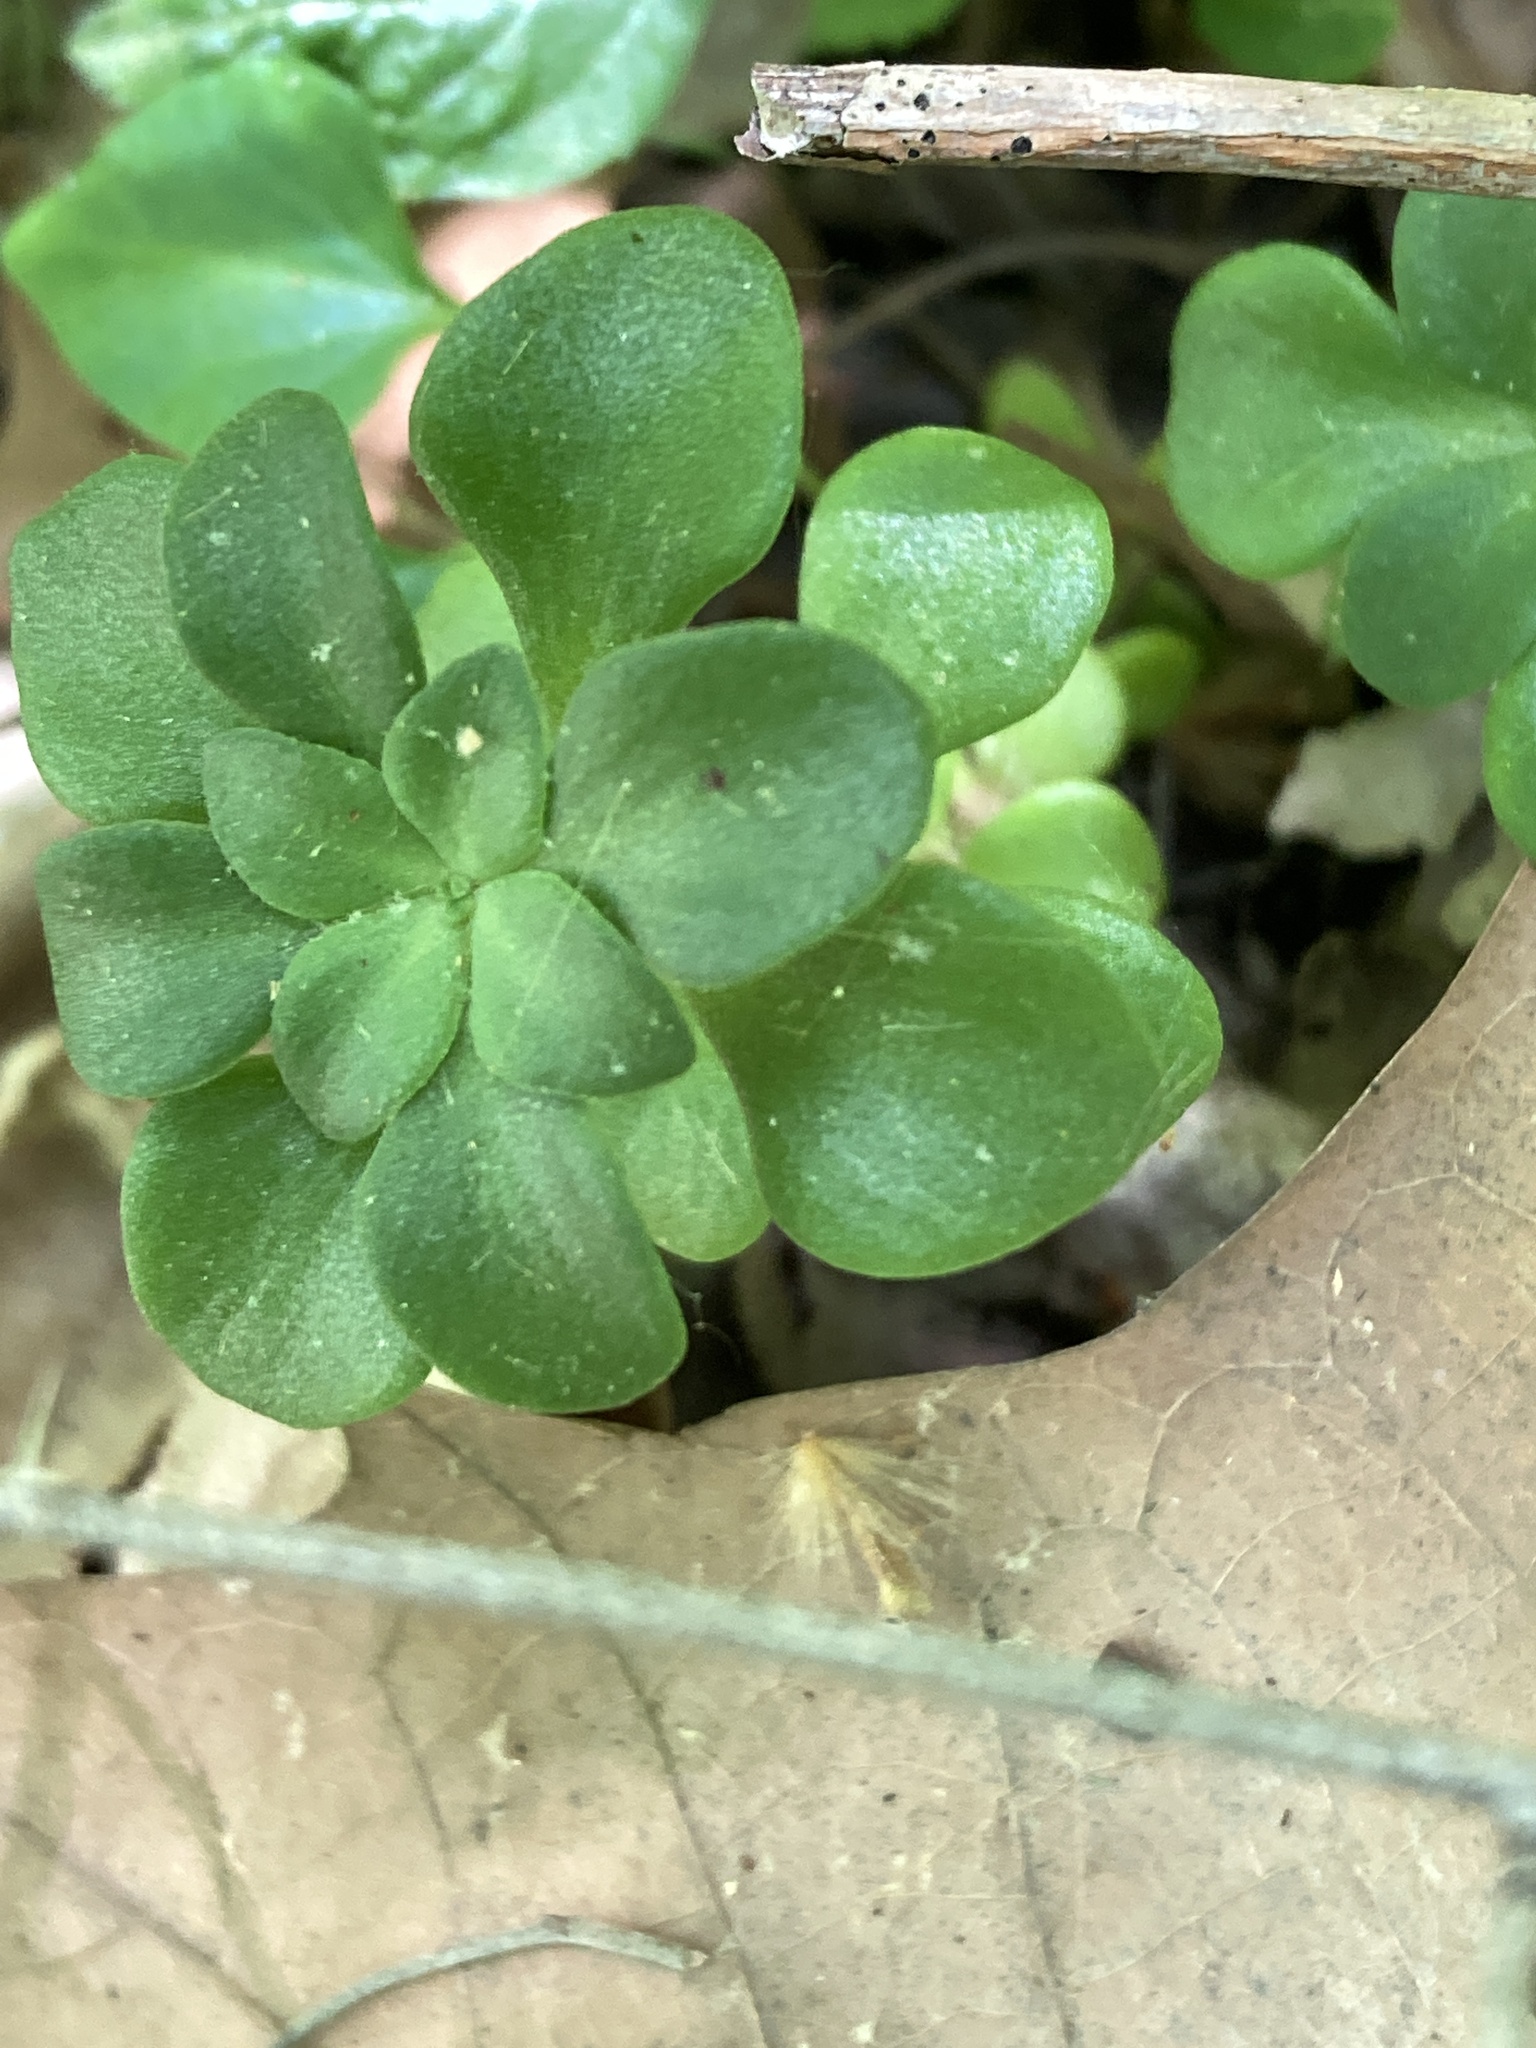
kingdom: Plantae
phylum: Tracheophyta
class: Magnoliopsida
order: Saxifragales
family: Crassulaceae
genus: Sedum
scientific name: Sedum ternatum
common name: Wild stonecrop
